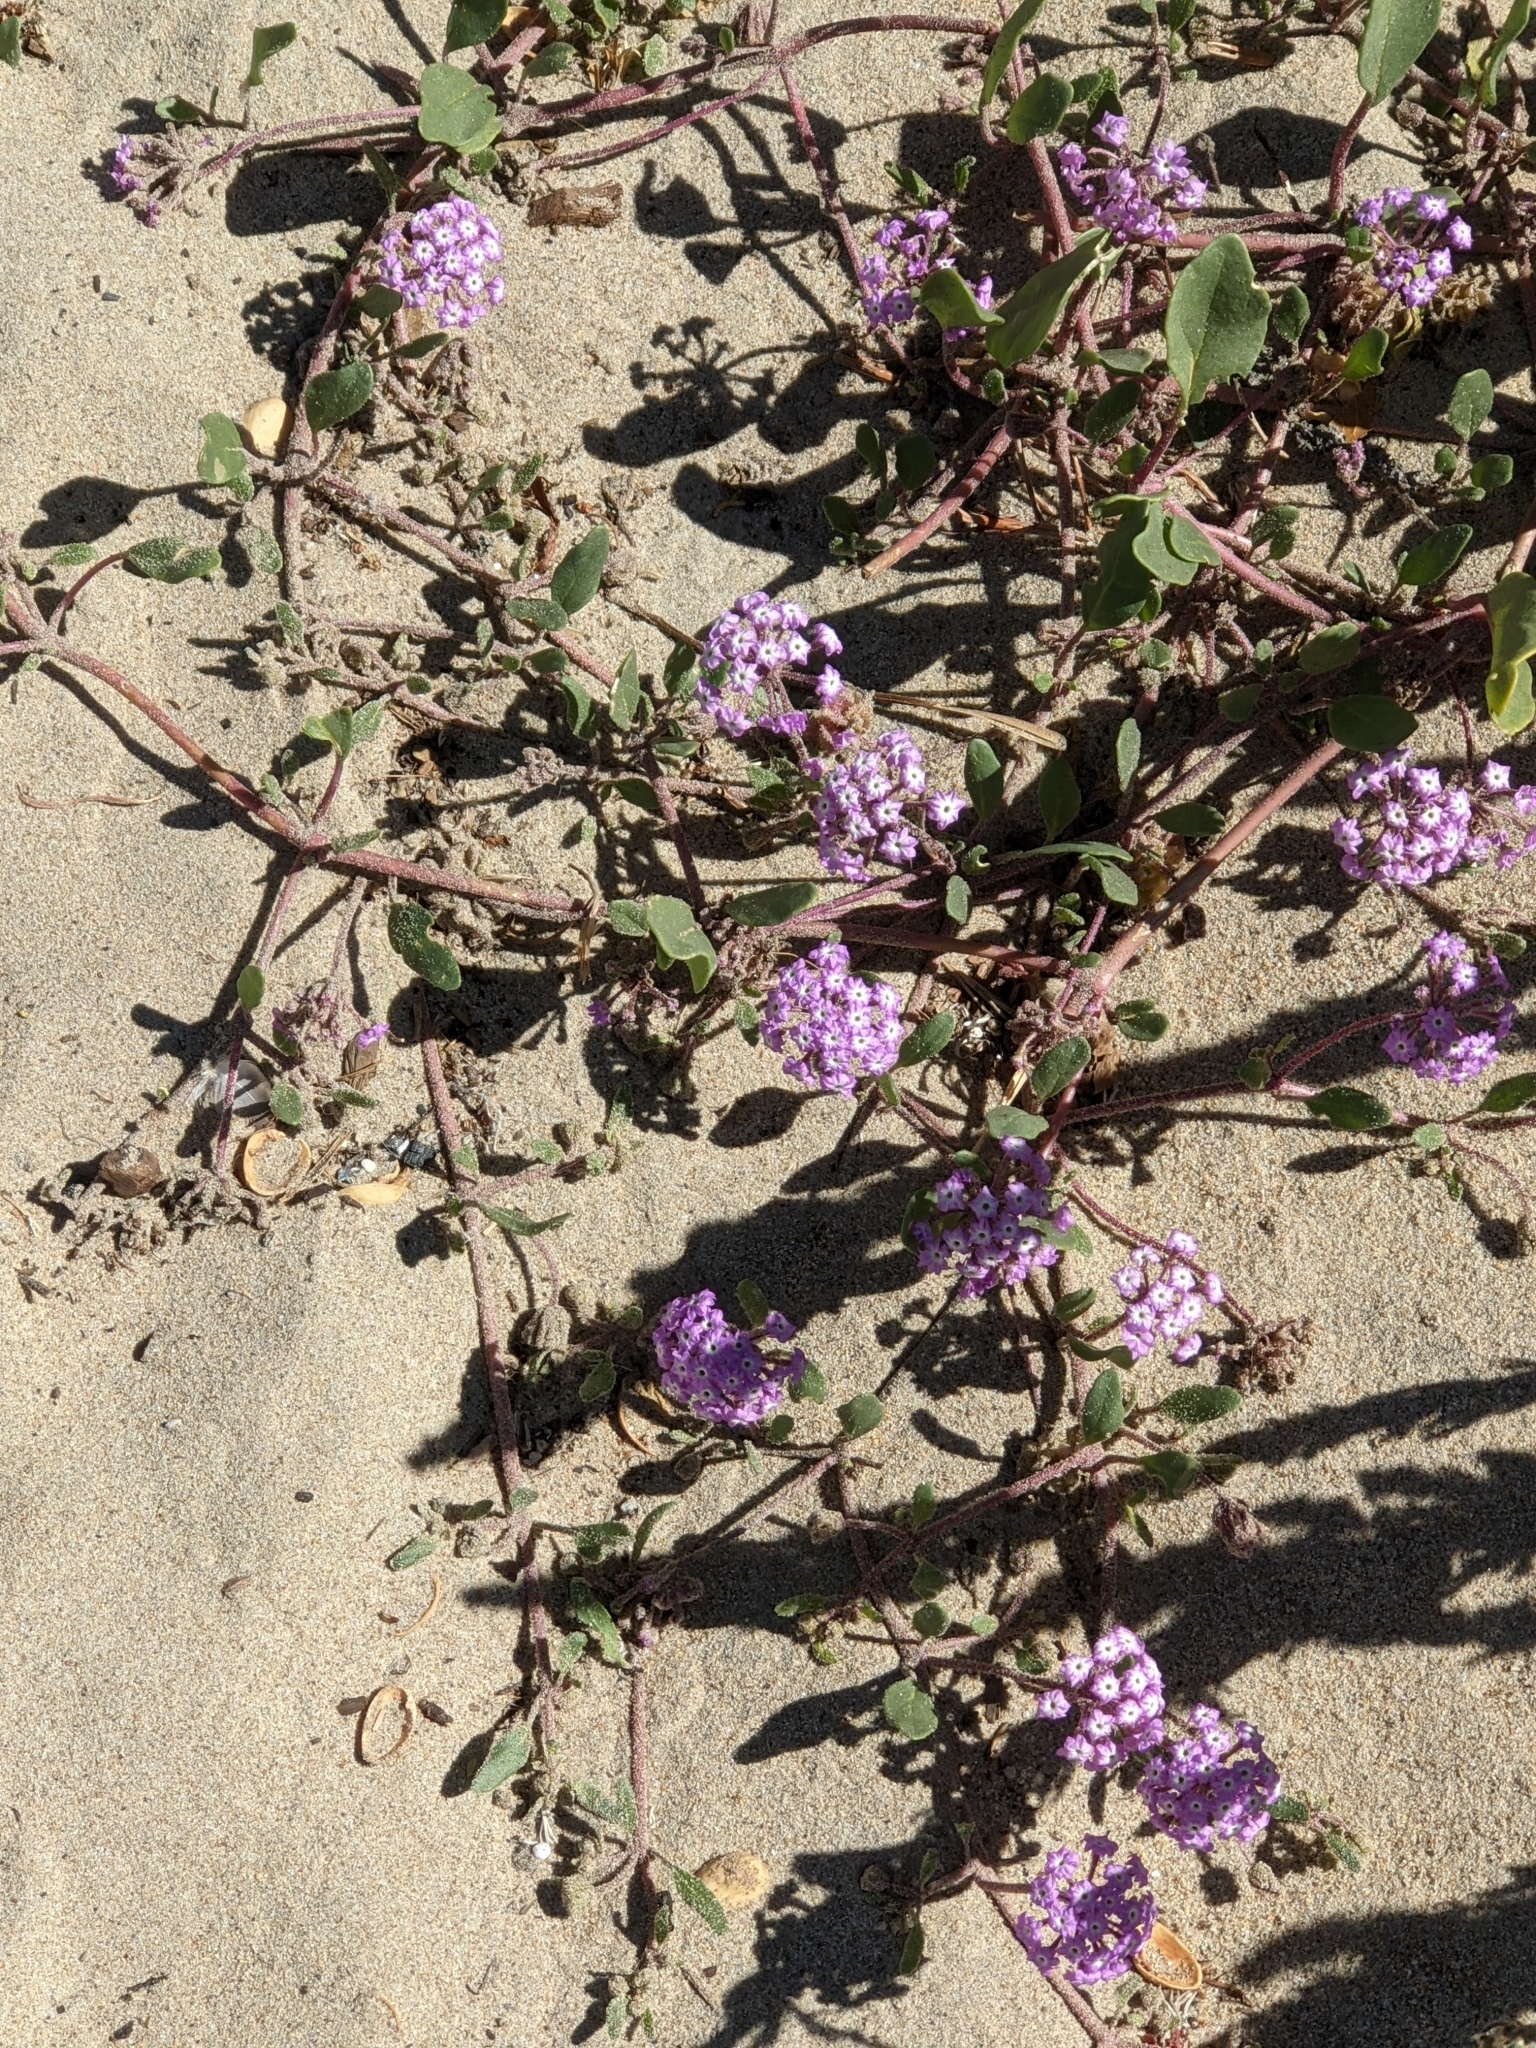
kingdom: Plantae
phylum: Tracheophyta
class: Magnoliopsida
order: Caryophyllales
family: Nyctaginaceae
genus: Abronia
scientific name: Abronia umbellata
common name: Sand-verbena
